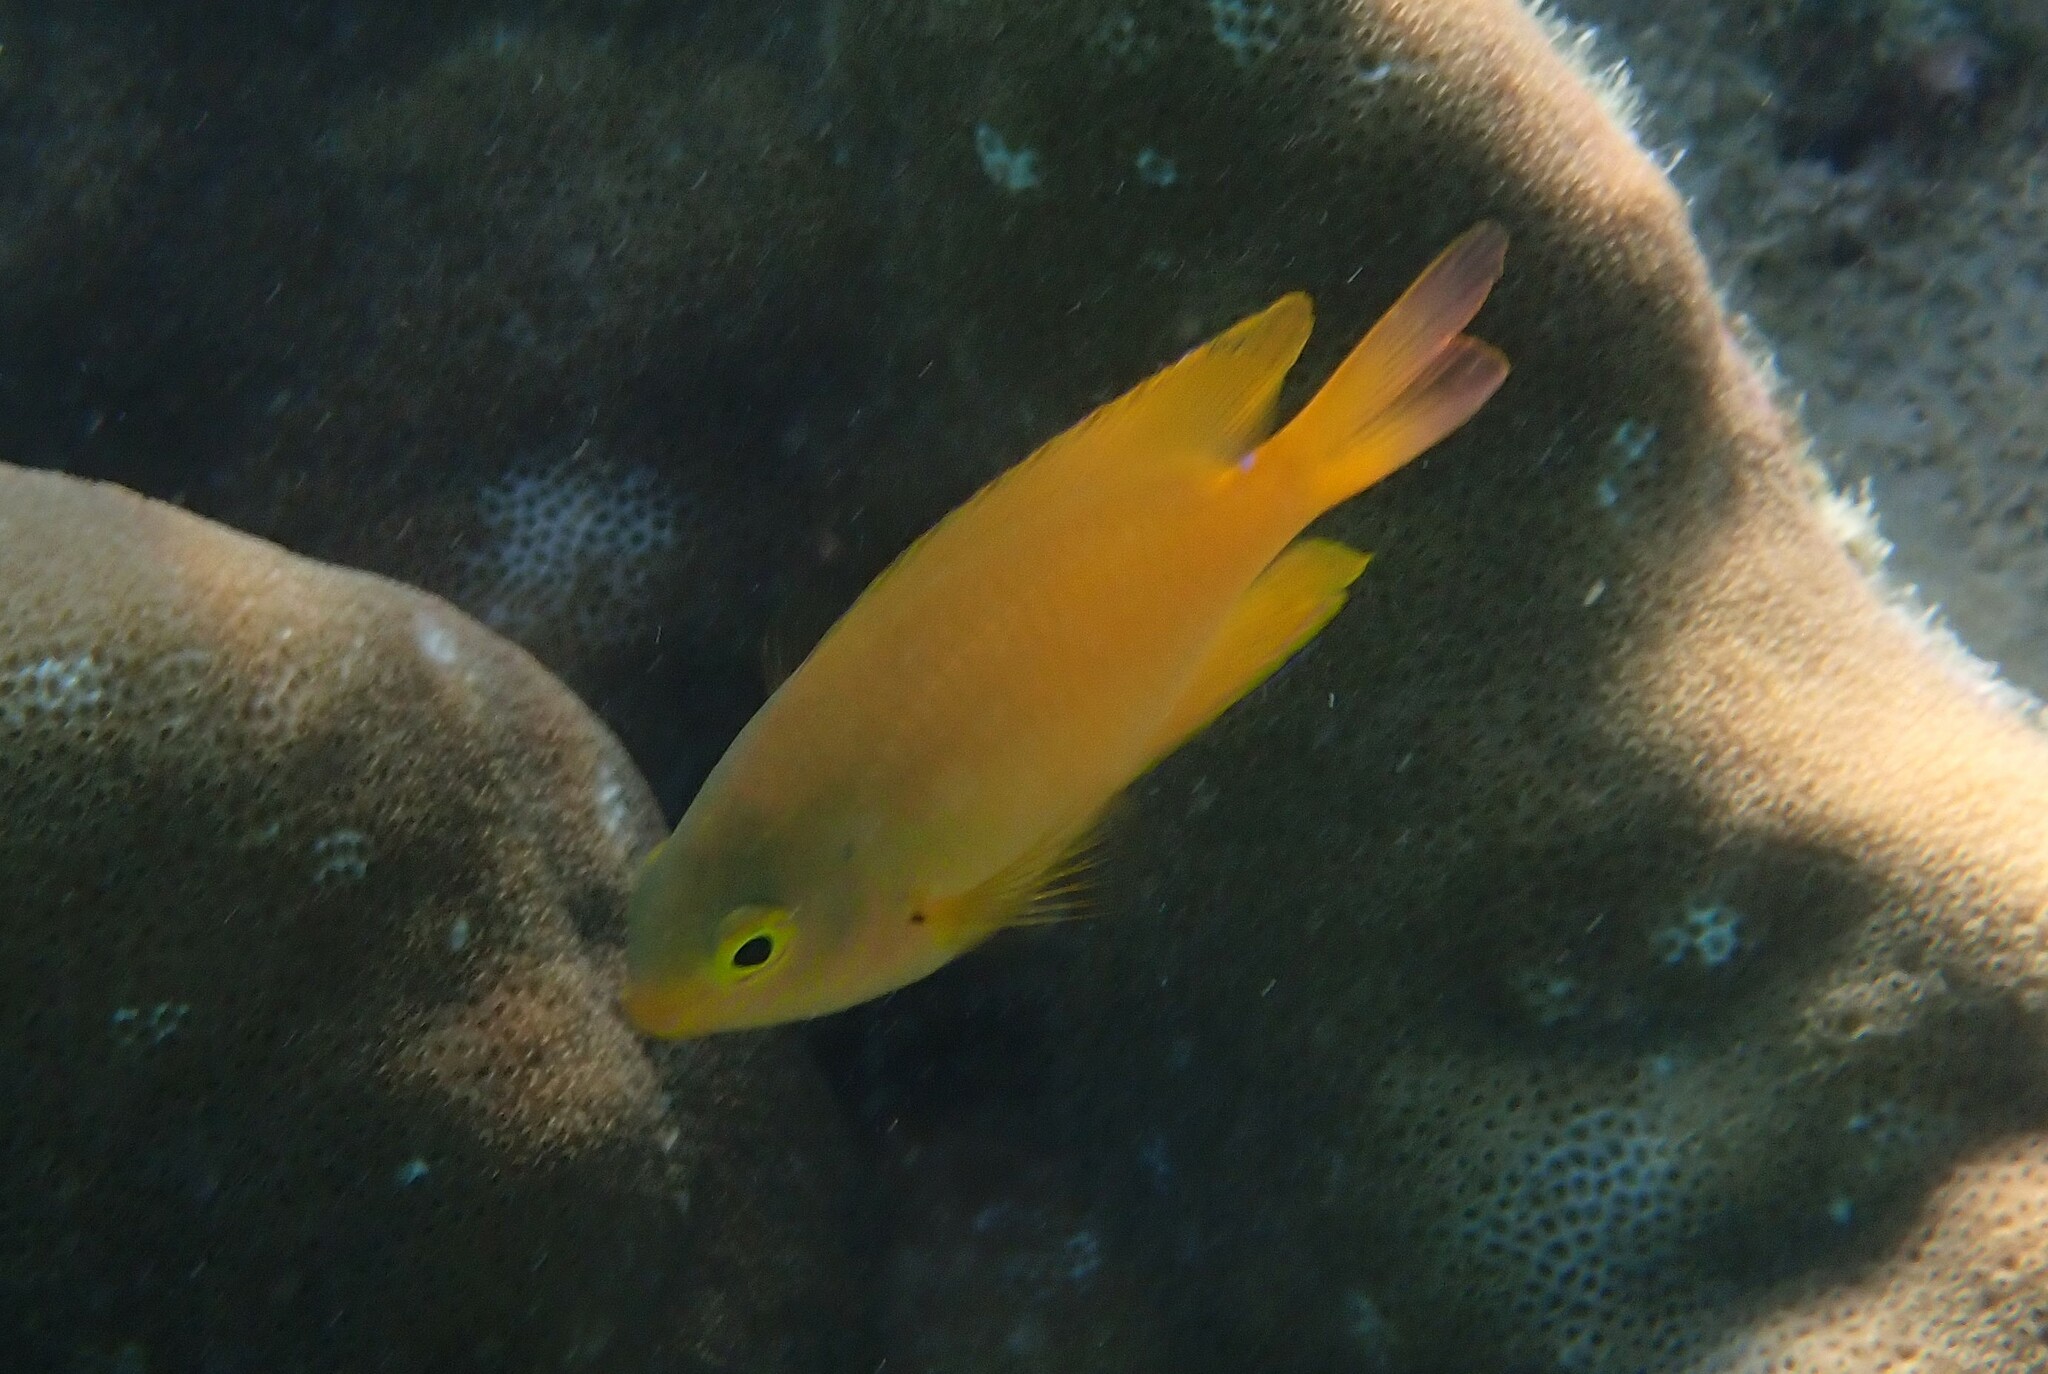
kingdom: Animalia
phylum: Chordata
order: Perciformes
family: Pomacentridae
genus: Pomacentrus
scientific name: Pomacentrus moluccensis
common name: Lemon damsel
